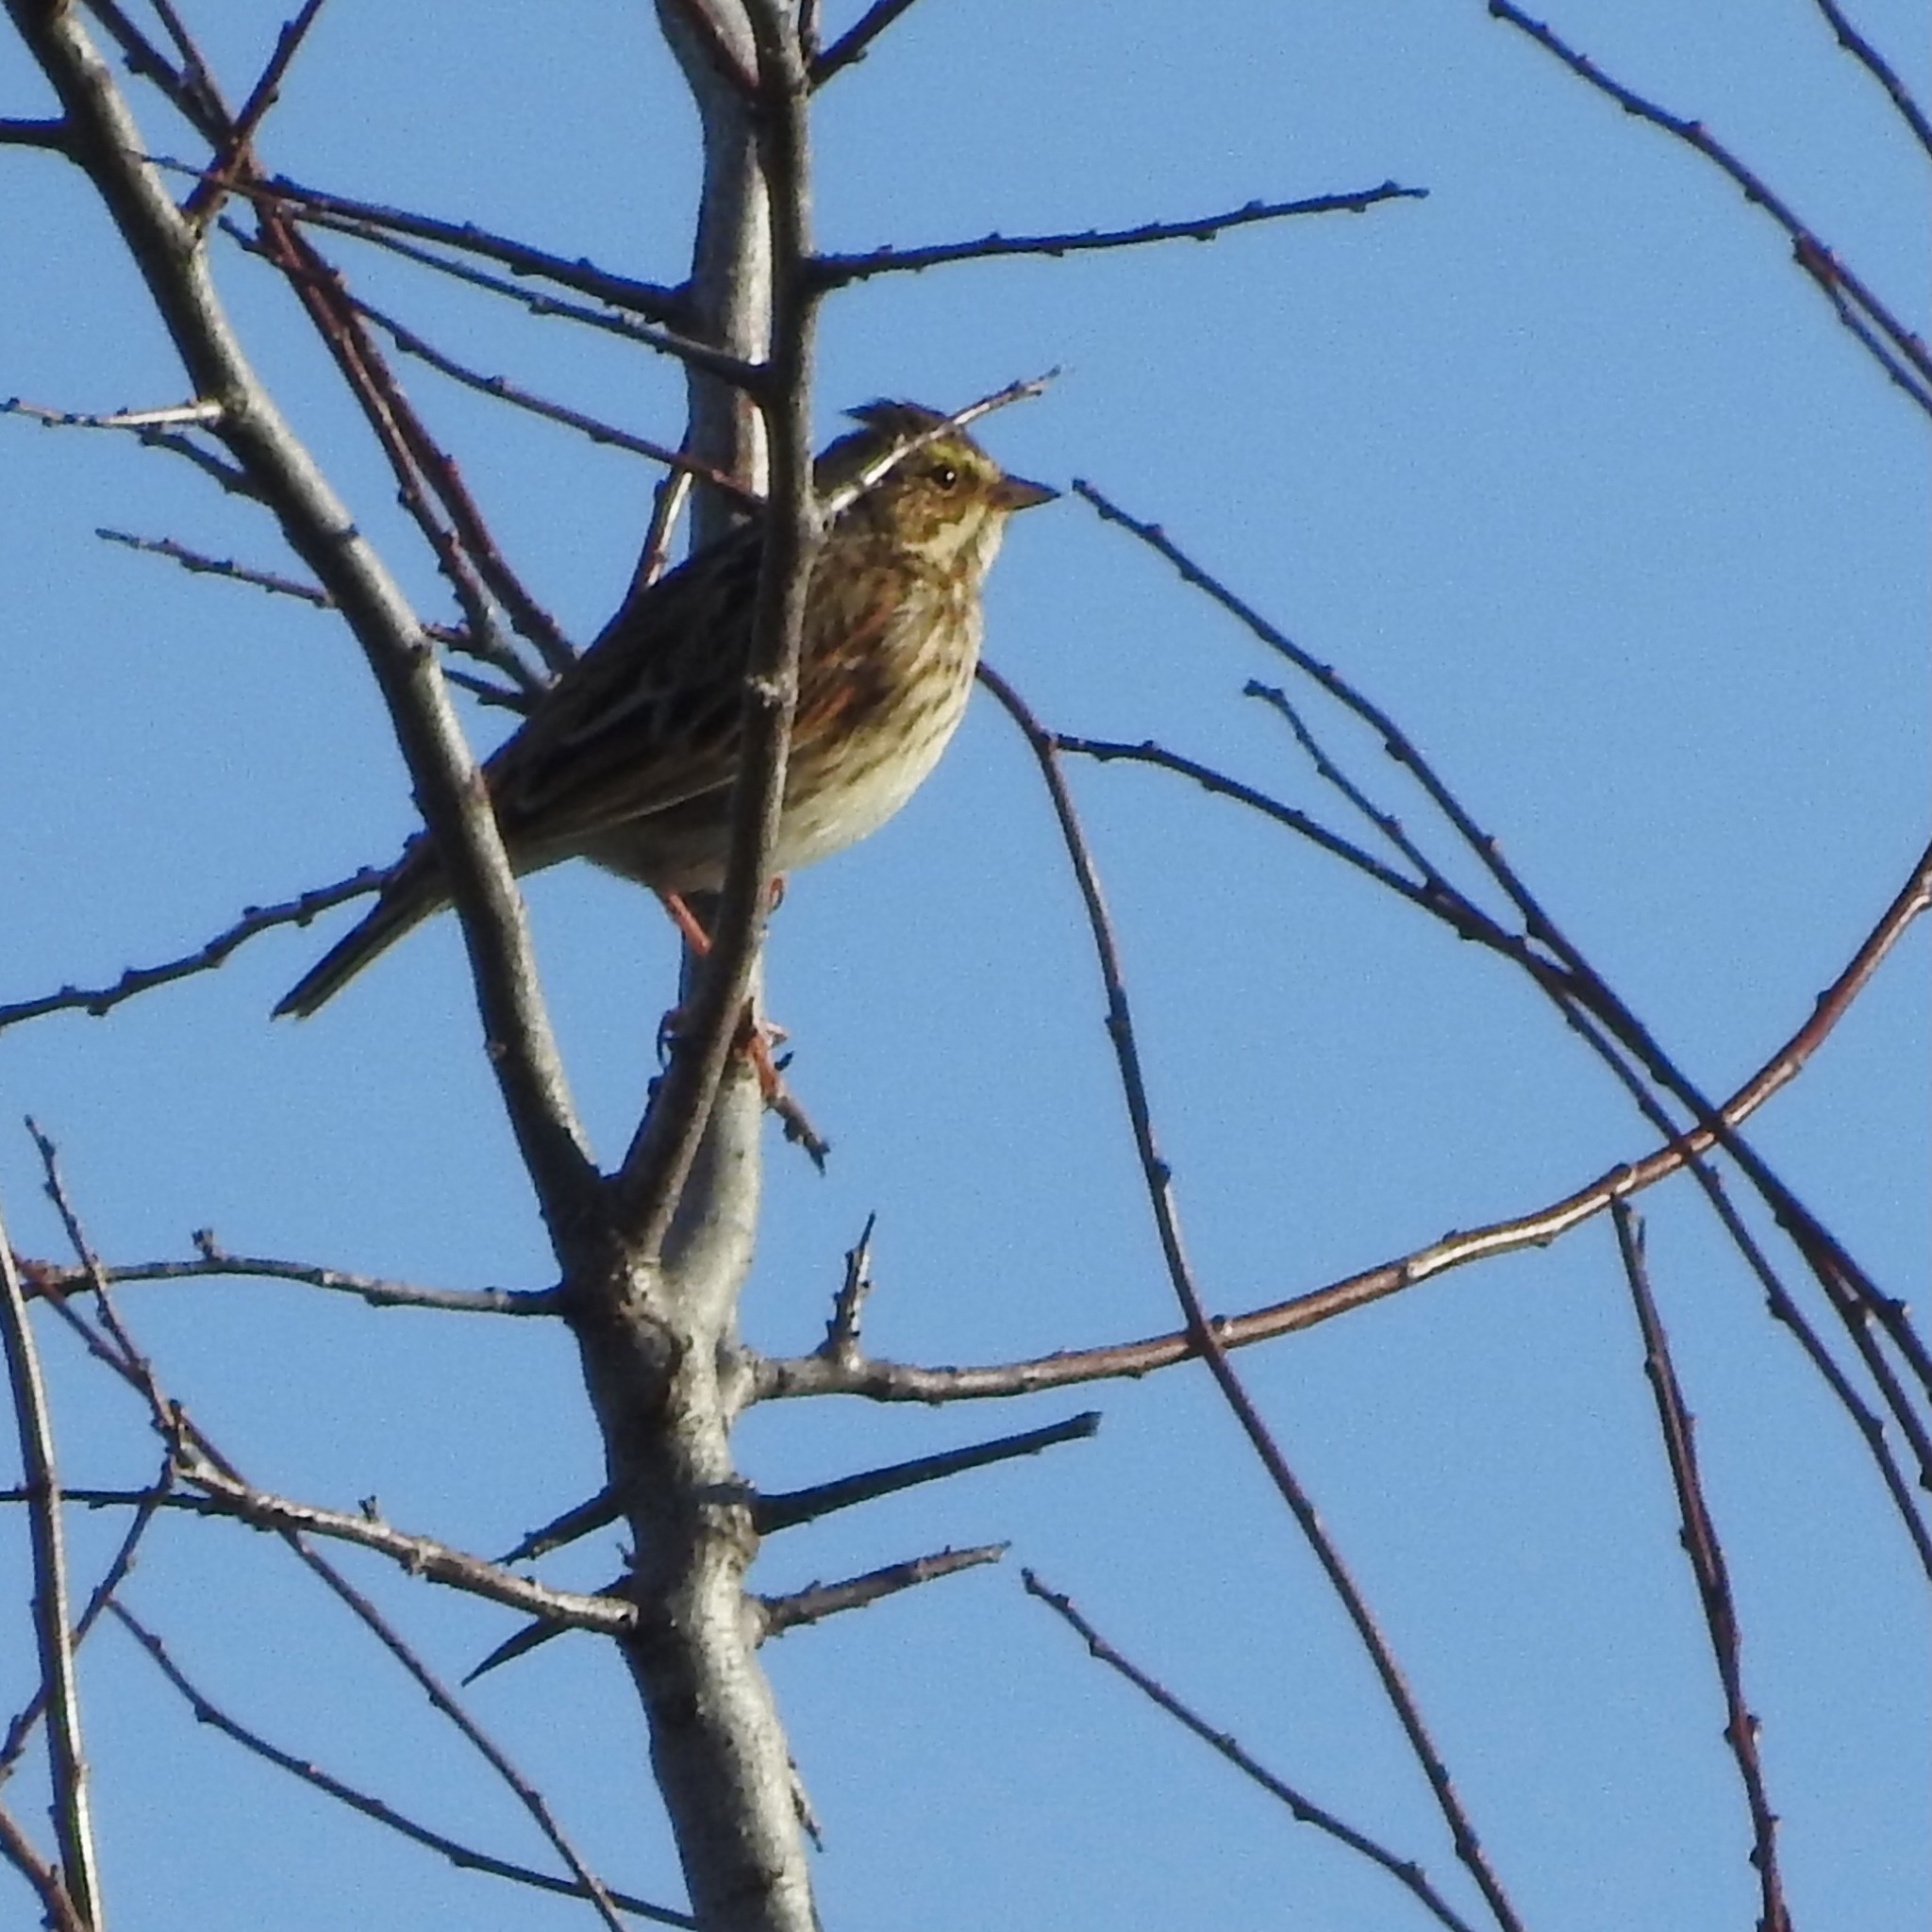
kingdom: Animalia
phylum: Chordata
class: Aves
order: Passeriformes
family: Passerellidae
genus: Passerculus
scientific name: Passerculus sandwichensis
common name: Savannah sparrow
